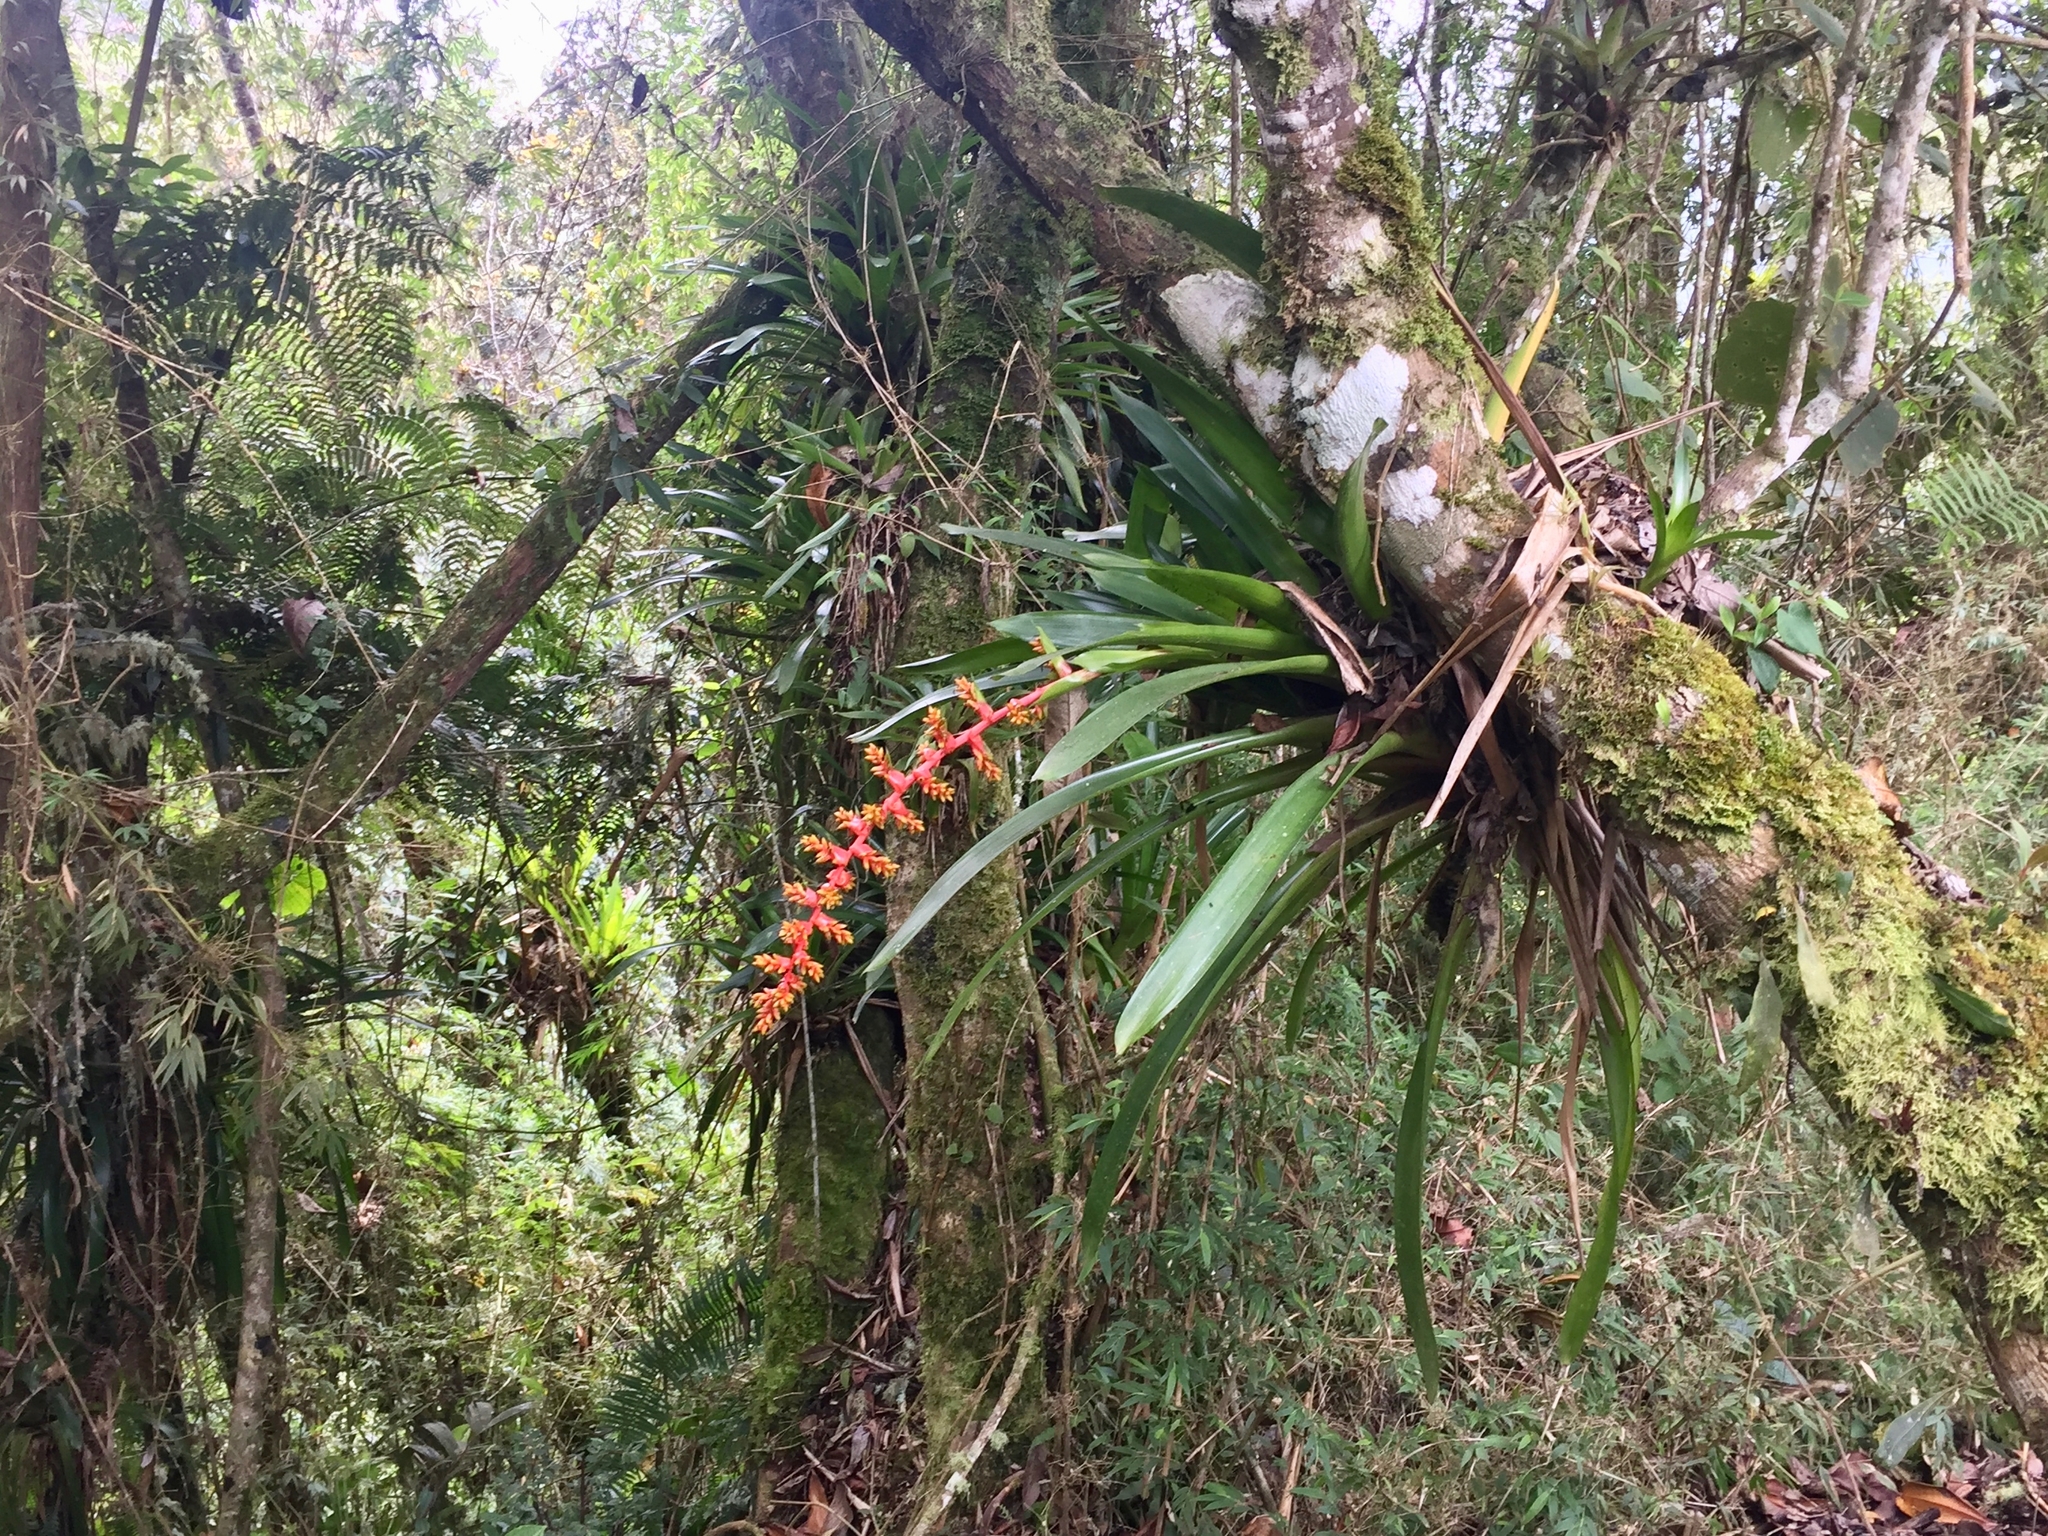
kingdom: Plantae
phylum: Tracheophyta
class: Liliopsida
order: Poales
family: Bromeliaceae
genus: Guzmania
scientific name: Guzmania multiflora
